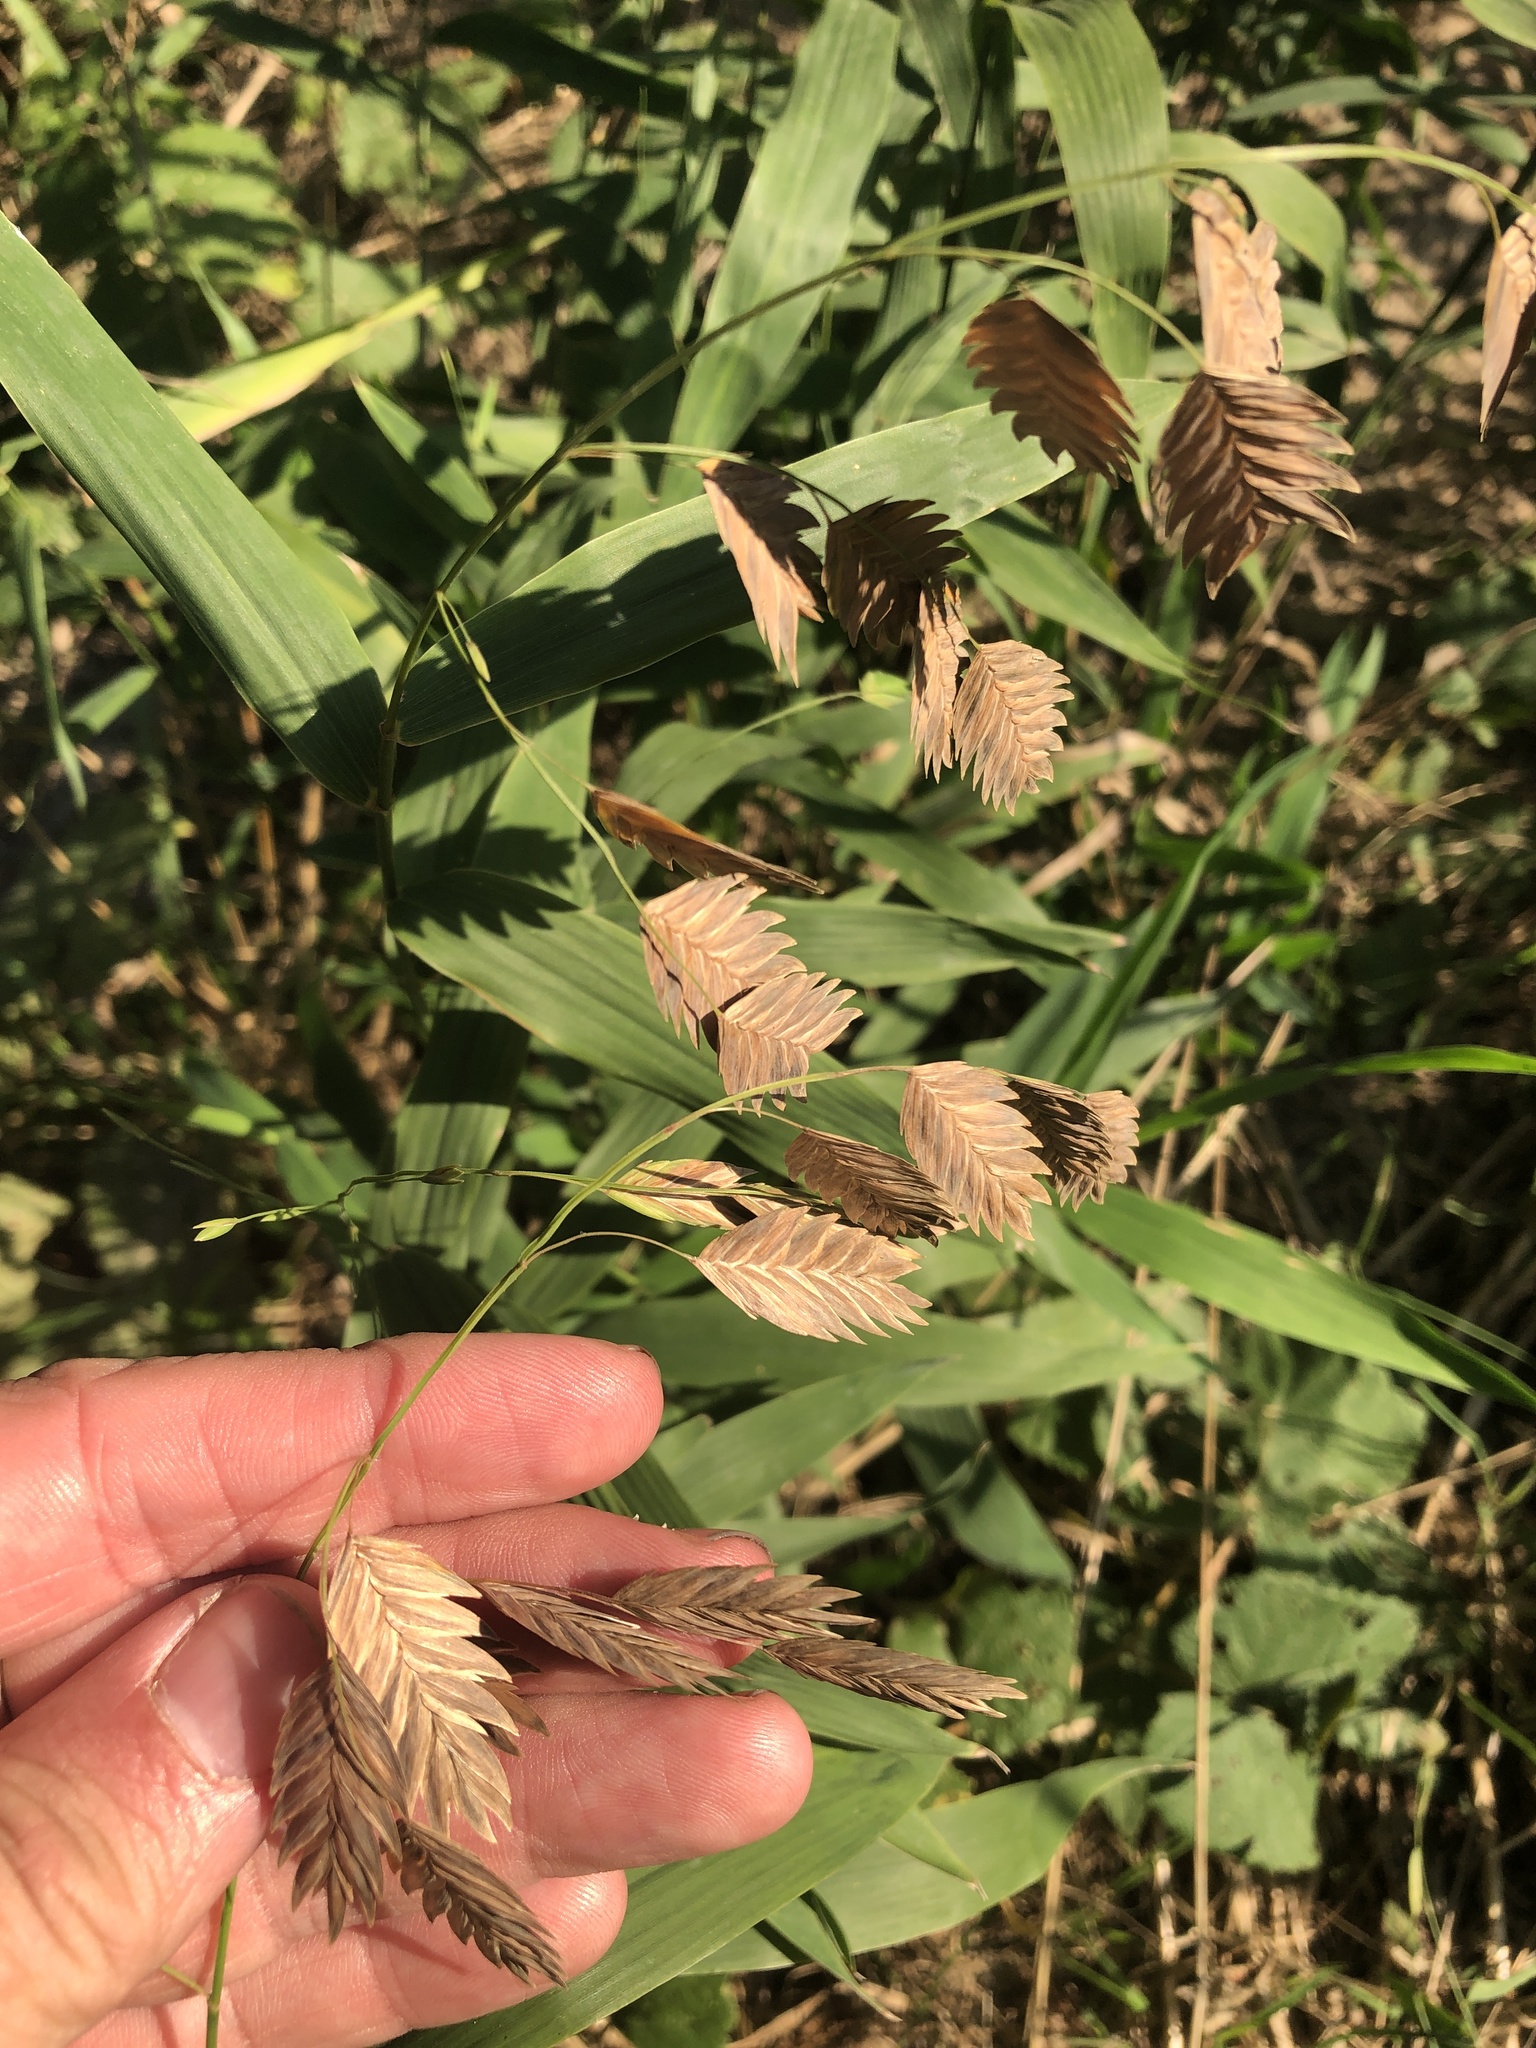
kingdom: Plantae
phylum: Tracheophyta
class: Liliopsida
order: Poales
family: Poaceae
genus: Chasmanthium
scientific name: Chasmanthium latifolium
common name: Broad-leaved chasmanthium
